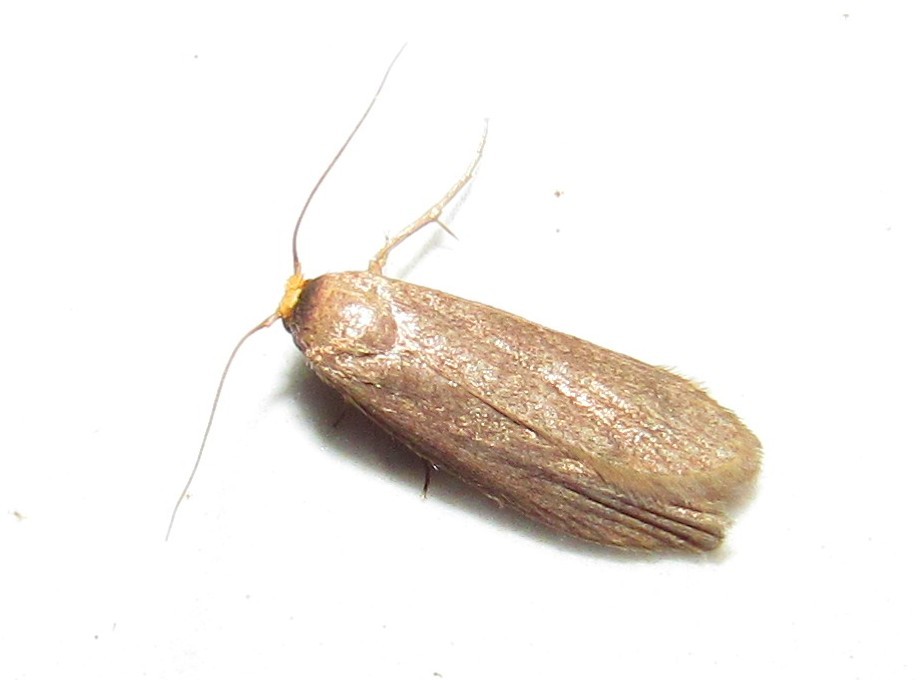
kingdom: Animalia
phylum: Arthropoda
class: Insecta
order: Lepidoptera
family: Pyralidae
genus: Achroia
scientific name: Achroia grisella
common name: Lesser wax moth
